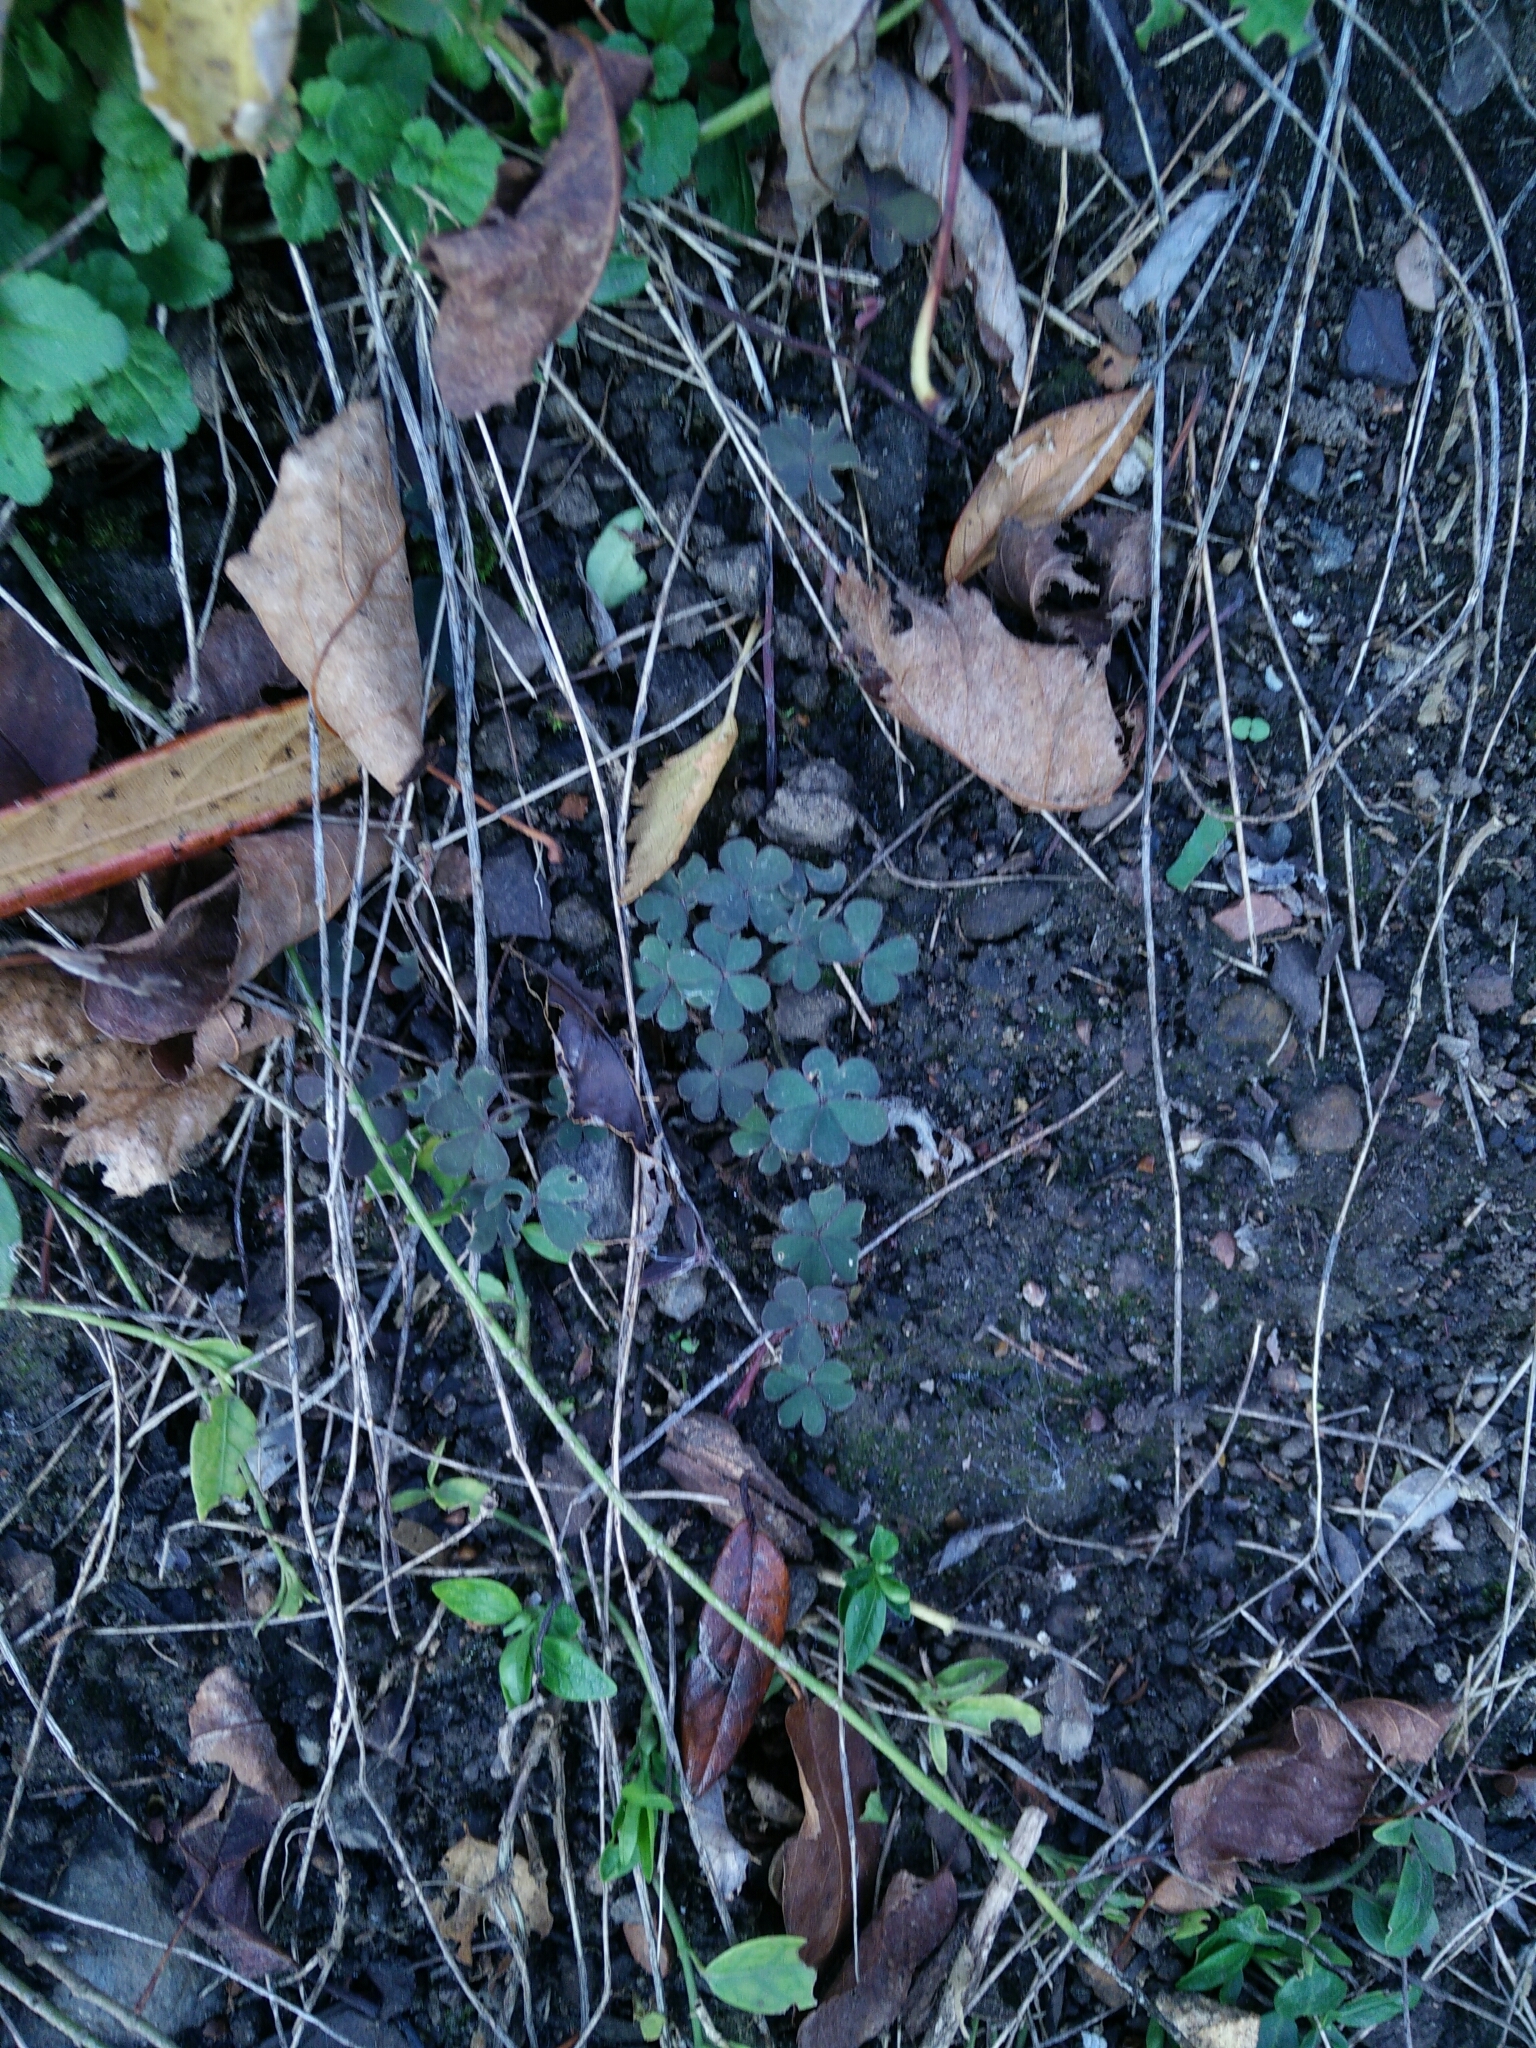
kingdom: Plantae
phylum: Tracheophyta
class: Magnoliopsida
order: Oxalidales
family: Oxalidaceae
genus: Oxalis
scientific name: Oxalis corniculata
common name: Procumbent yellow-sorrel
